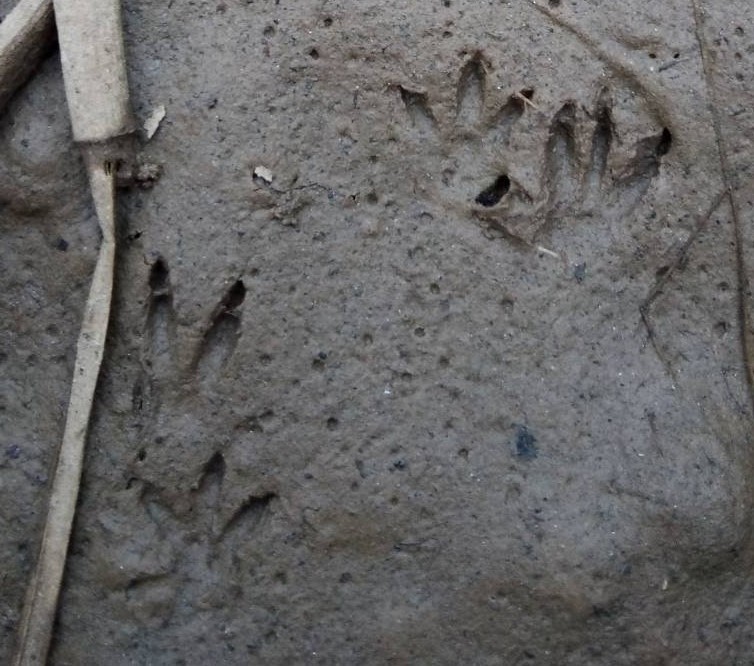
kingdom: Animalia
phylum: Chordata
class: Mammalia
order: Rodentia
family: Cricetidae
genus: Ondatra
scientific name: Ondatra zibethicus
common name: Muskrat
